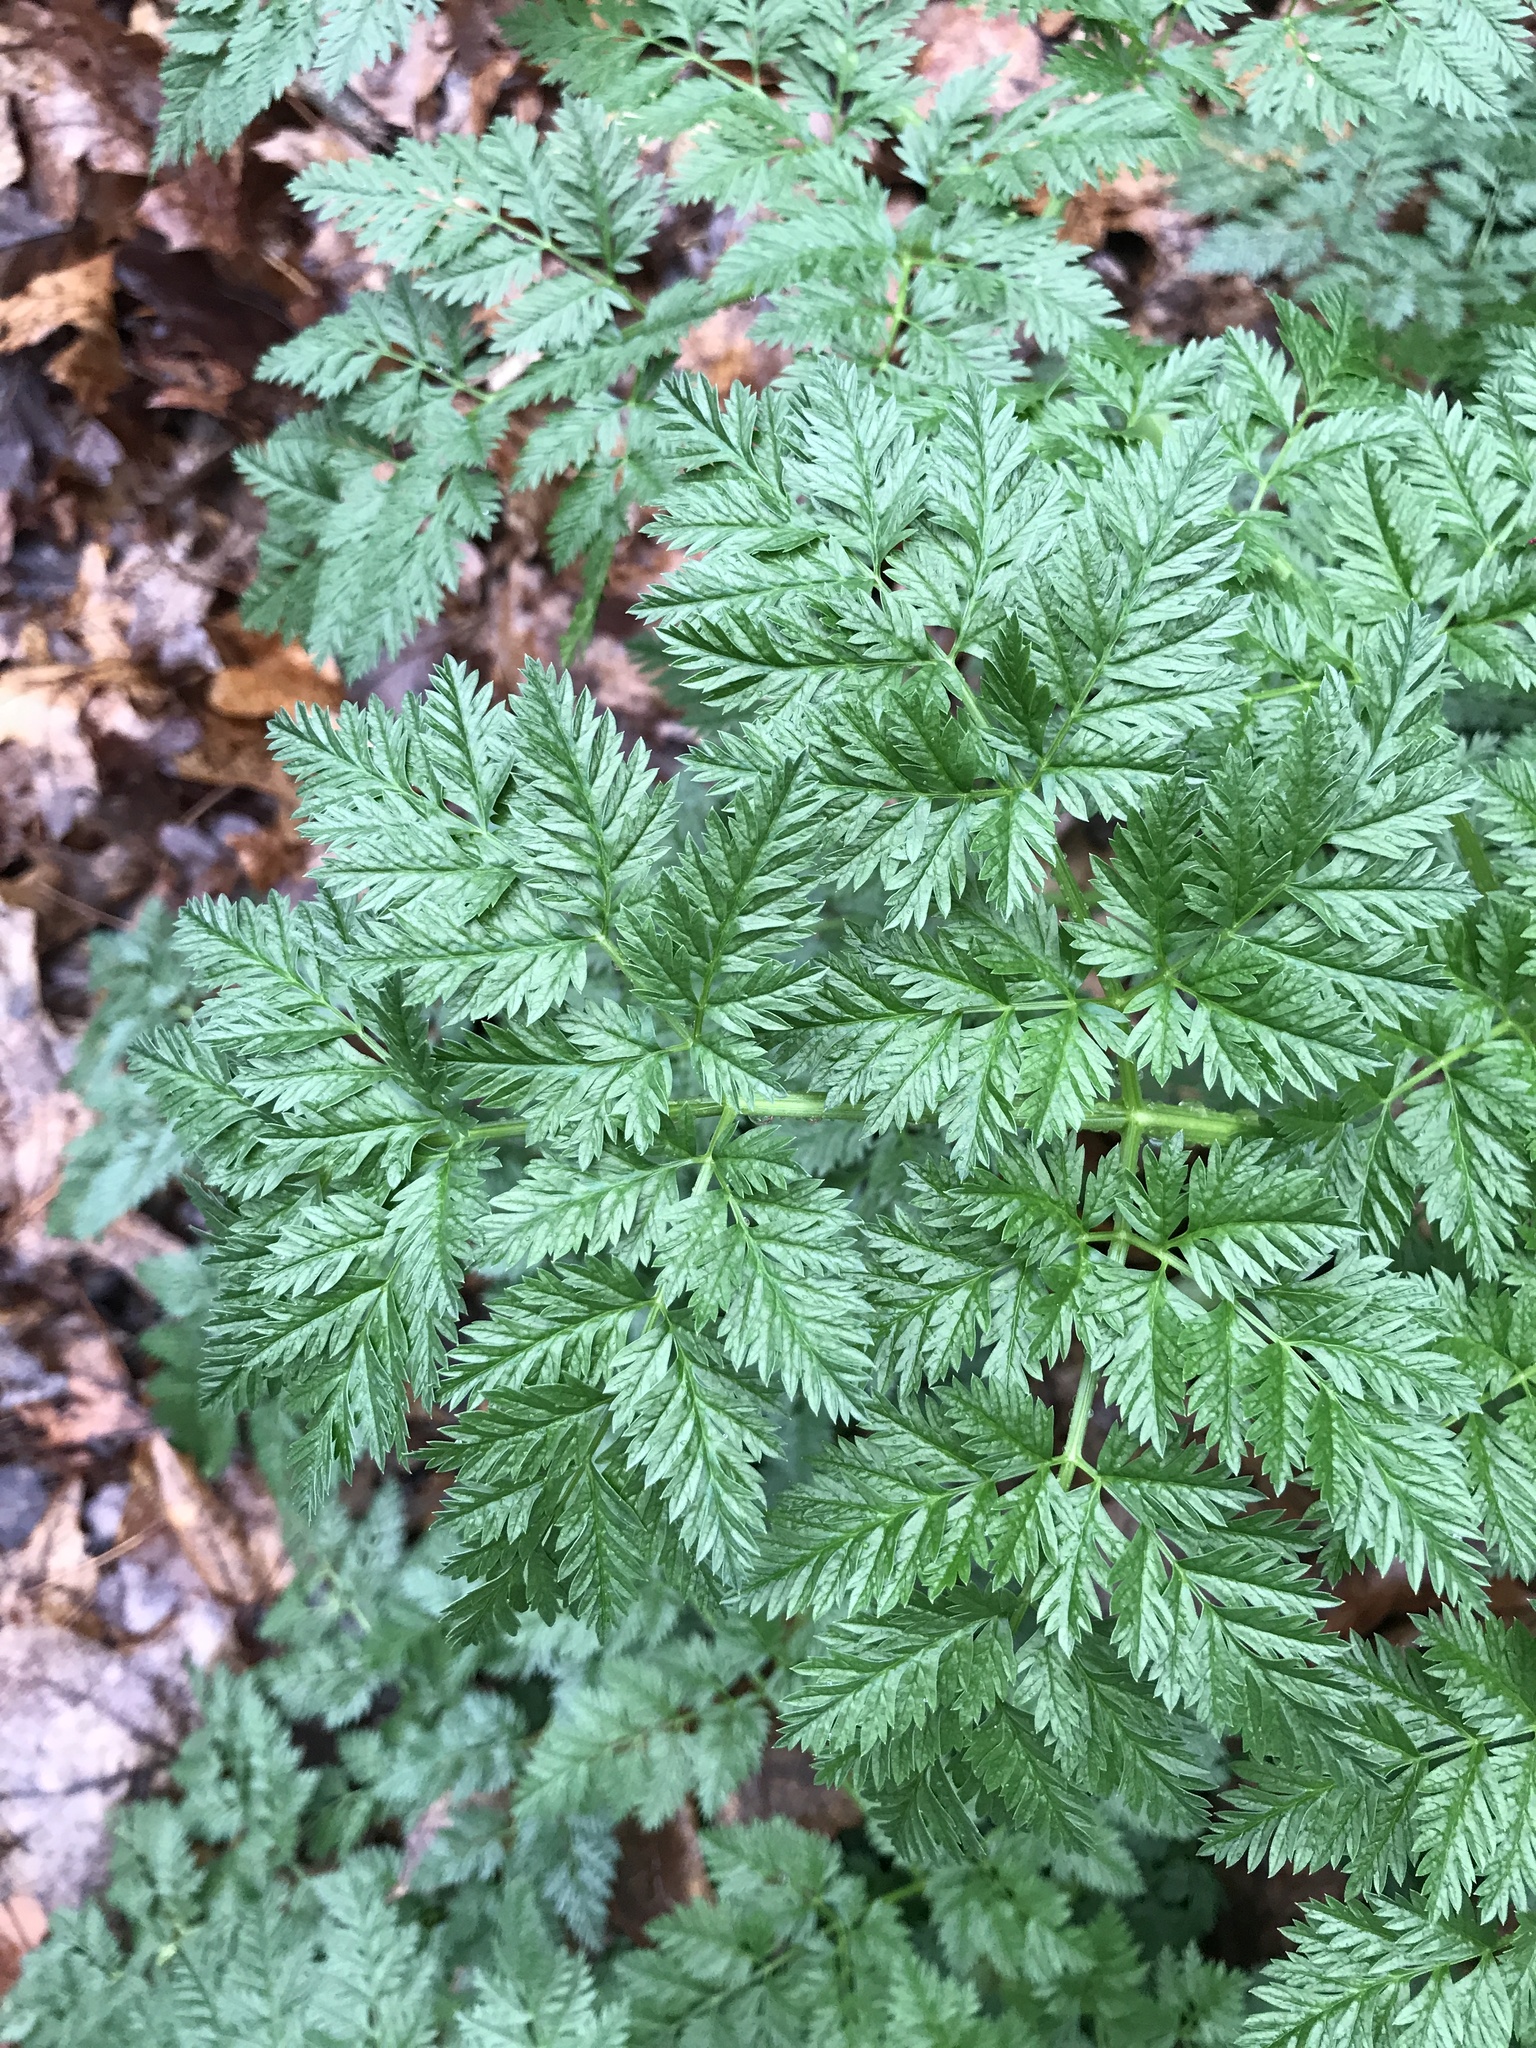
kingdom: Plantae
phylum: Tracheophyta
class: Magnoliopsida
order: Apiales
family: Apiaceae
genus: Conium
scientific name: Conium maculatum
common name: Hemlock
